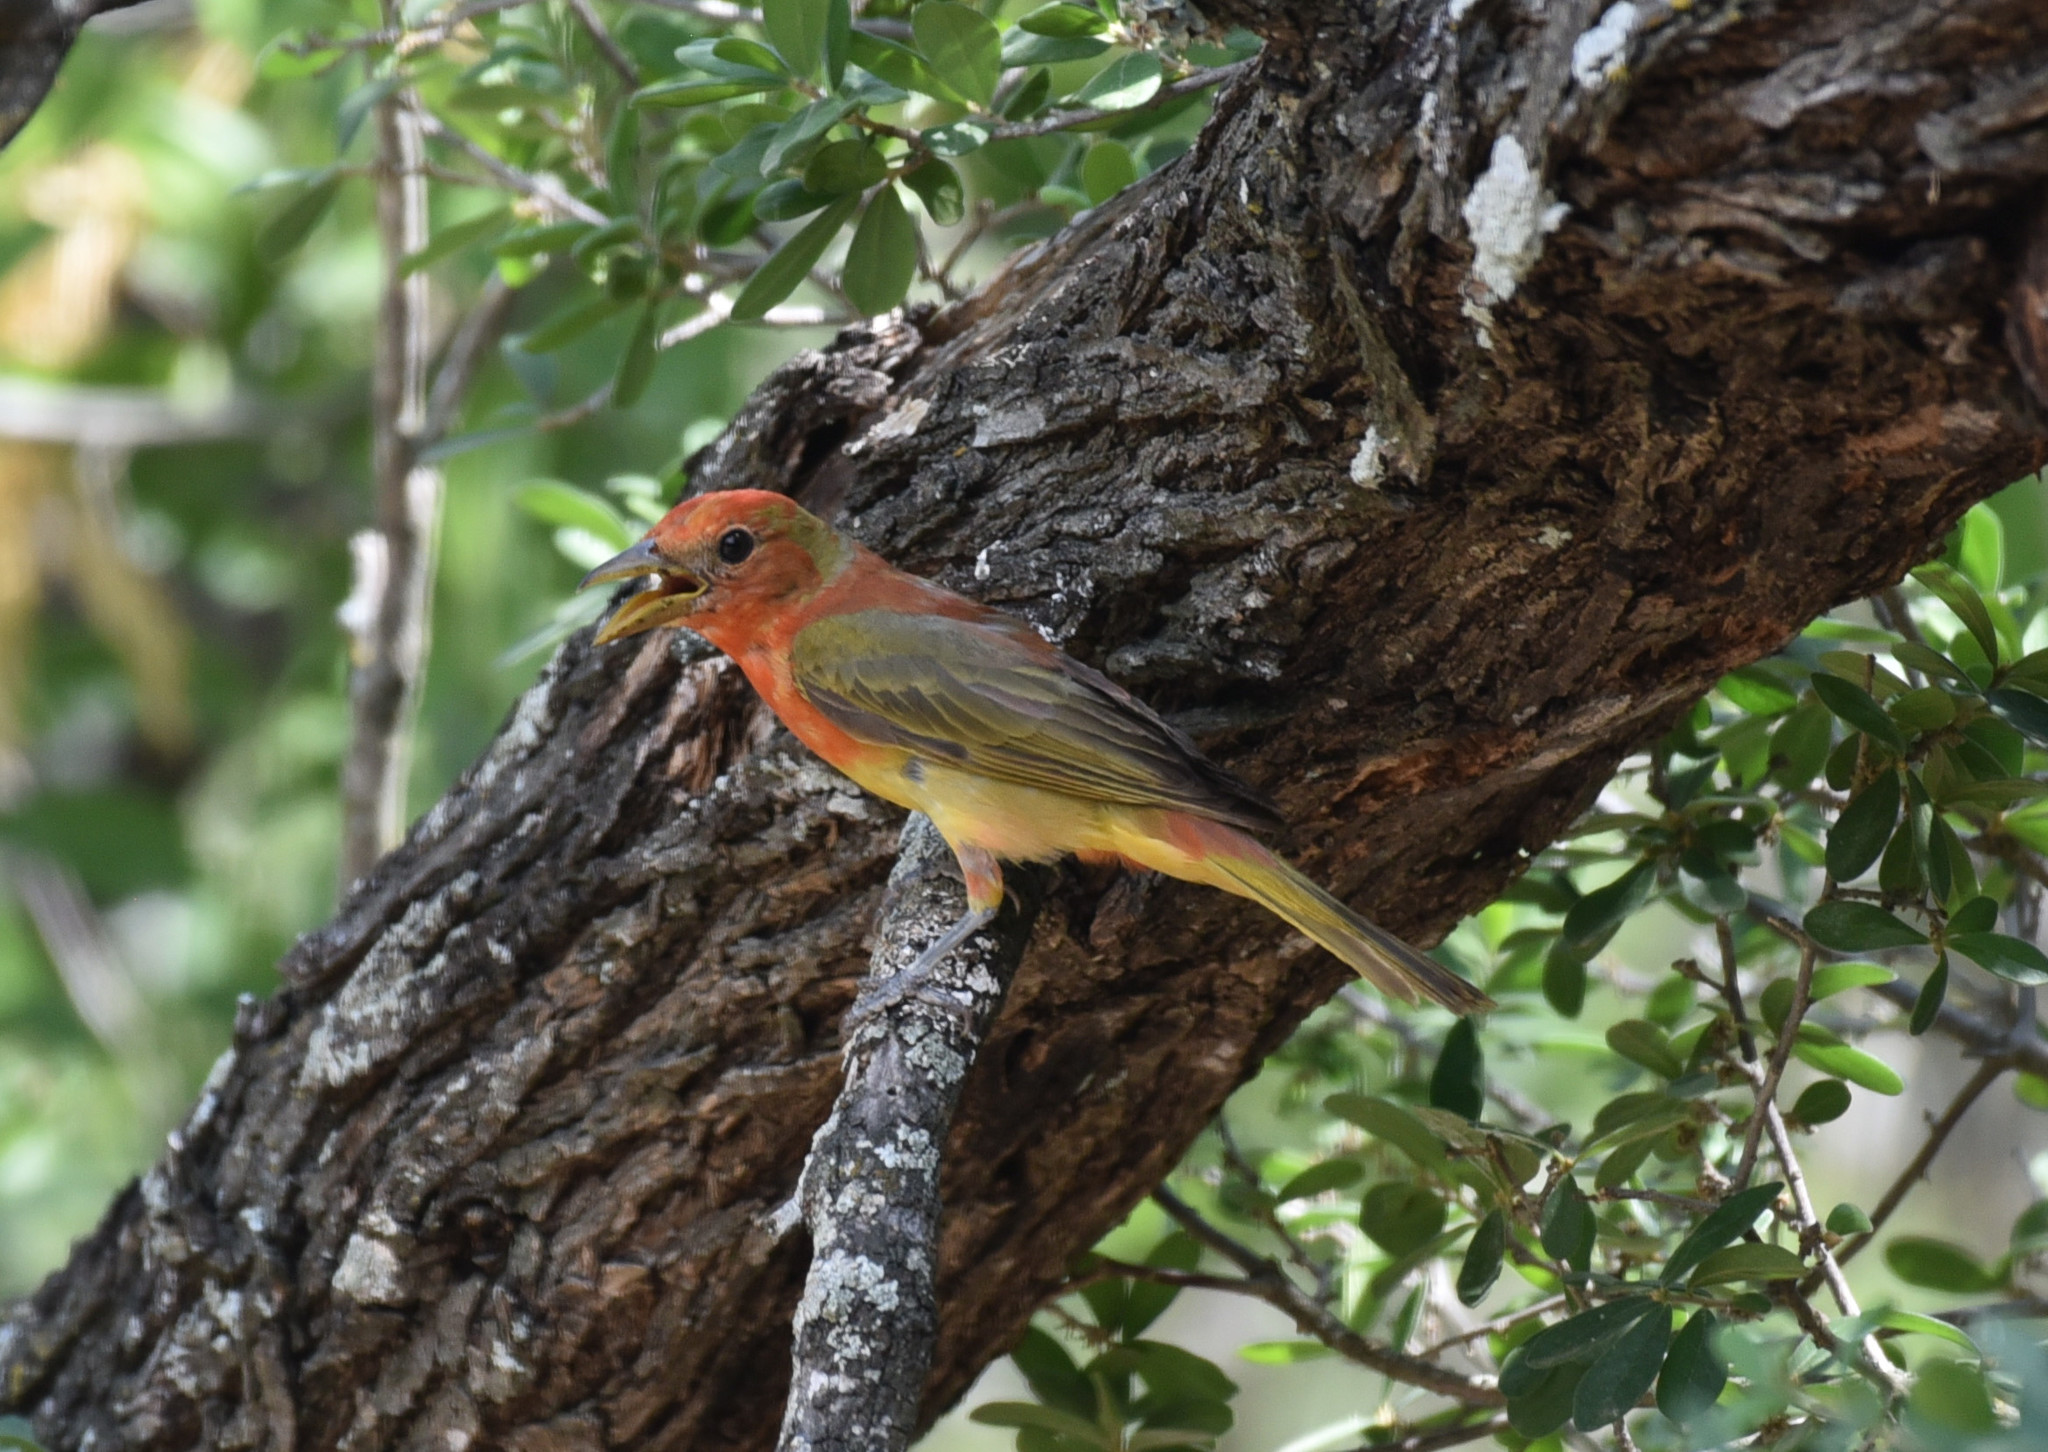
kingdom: Animalia
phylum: Chordata
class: Aves
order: Passeriformes
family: Cardinalidae
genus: Piranga
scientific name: Piranga rubra
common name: Summer tanager
